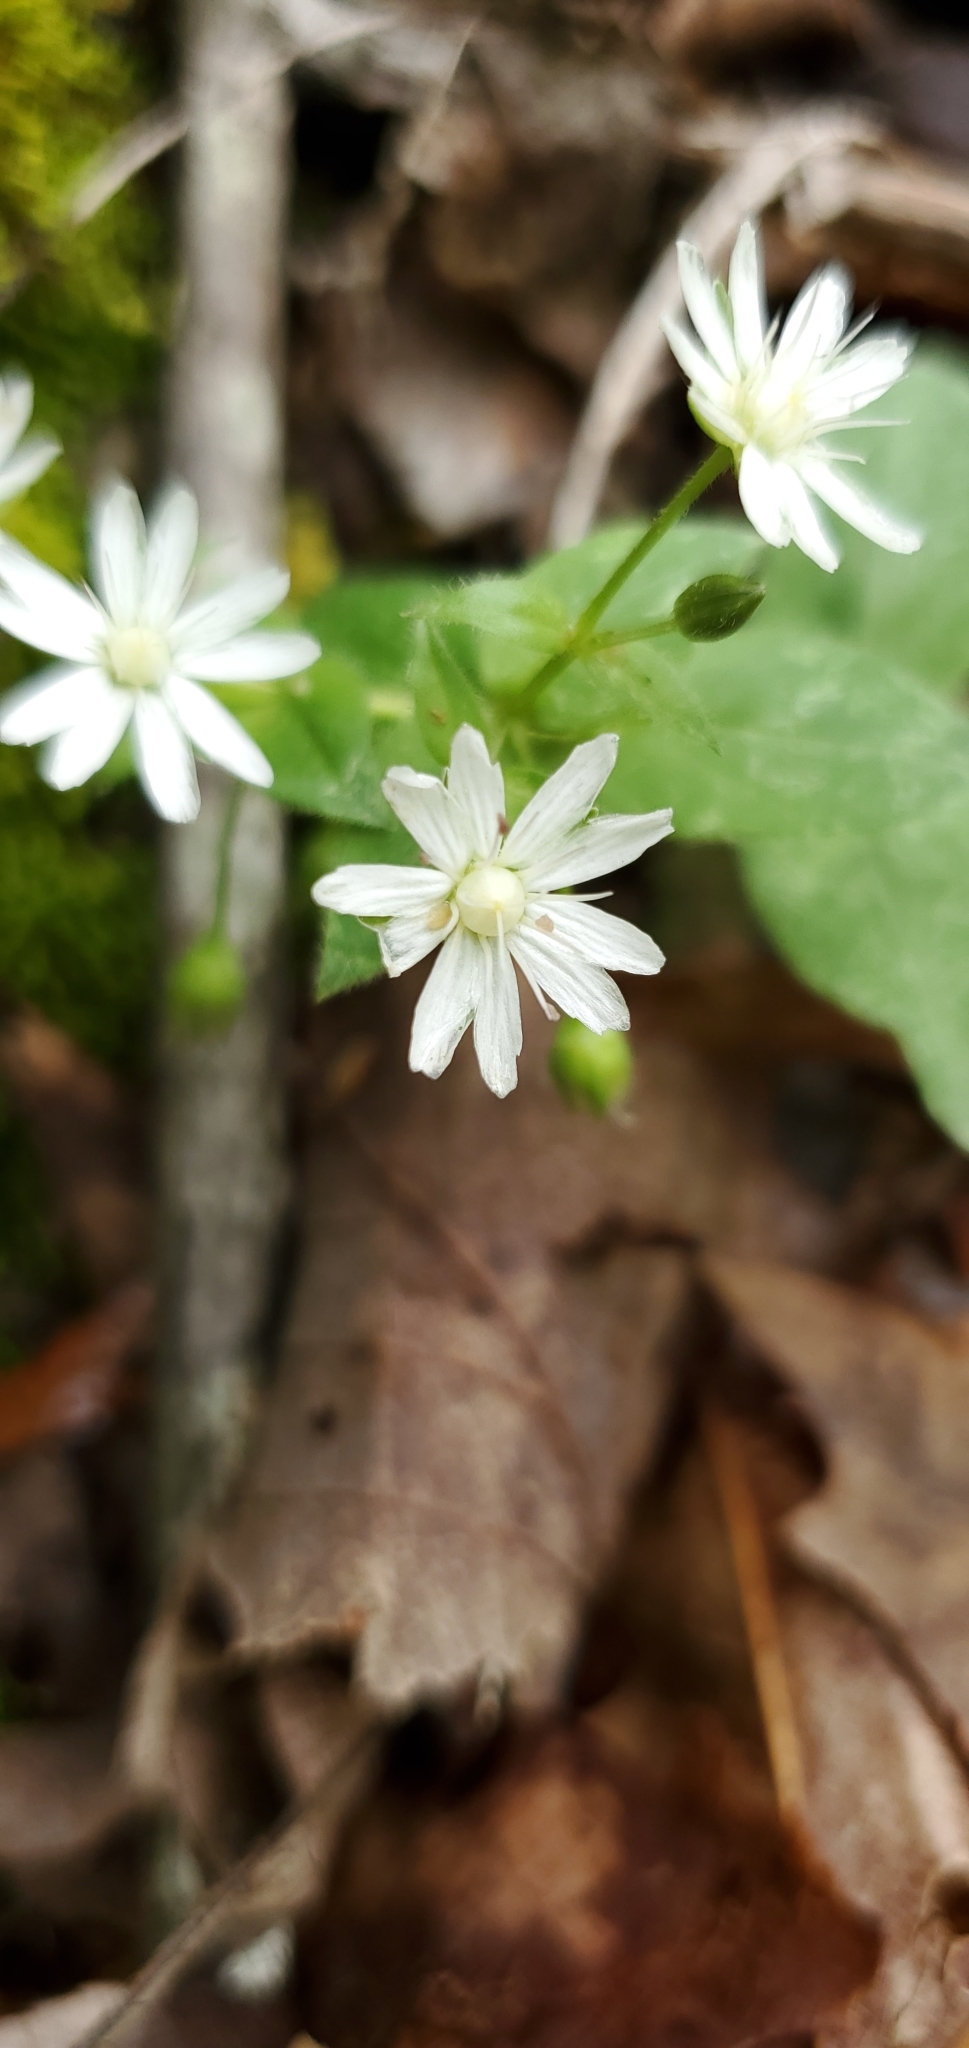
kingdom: Plantae
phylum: Tracheophyta
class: Magnoliopsida
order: Caryophyllales
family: Caryophyllaceae
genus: Stellaria
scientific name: Stellaria pubera
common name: Star chickweed
